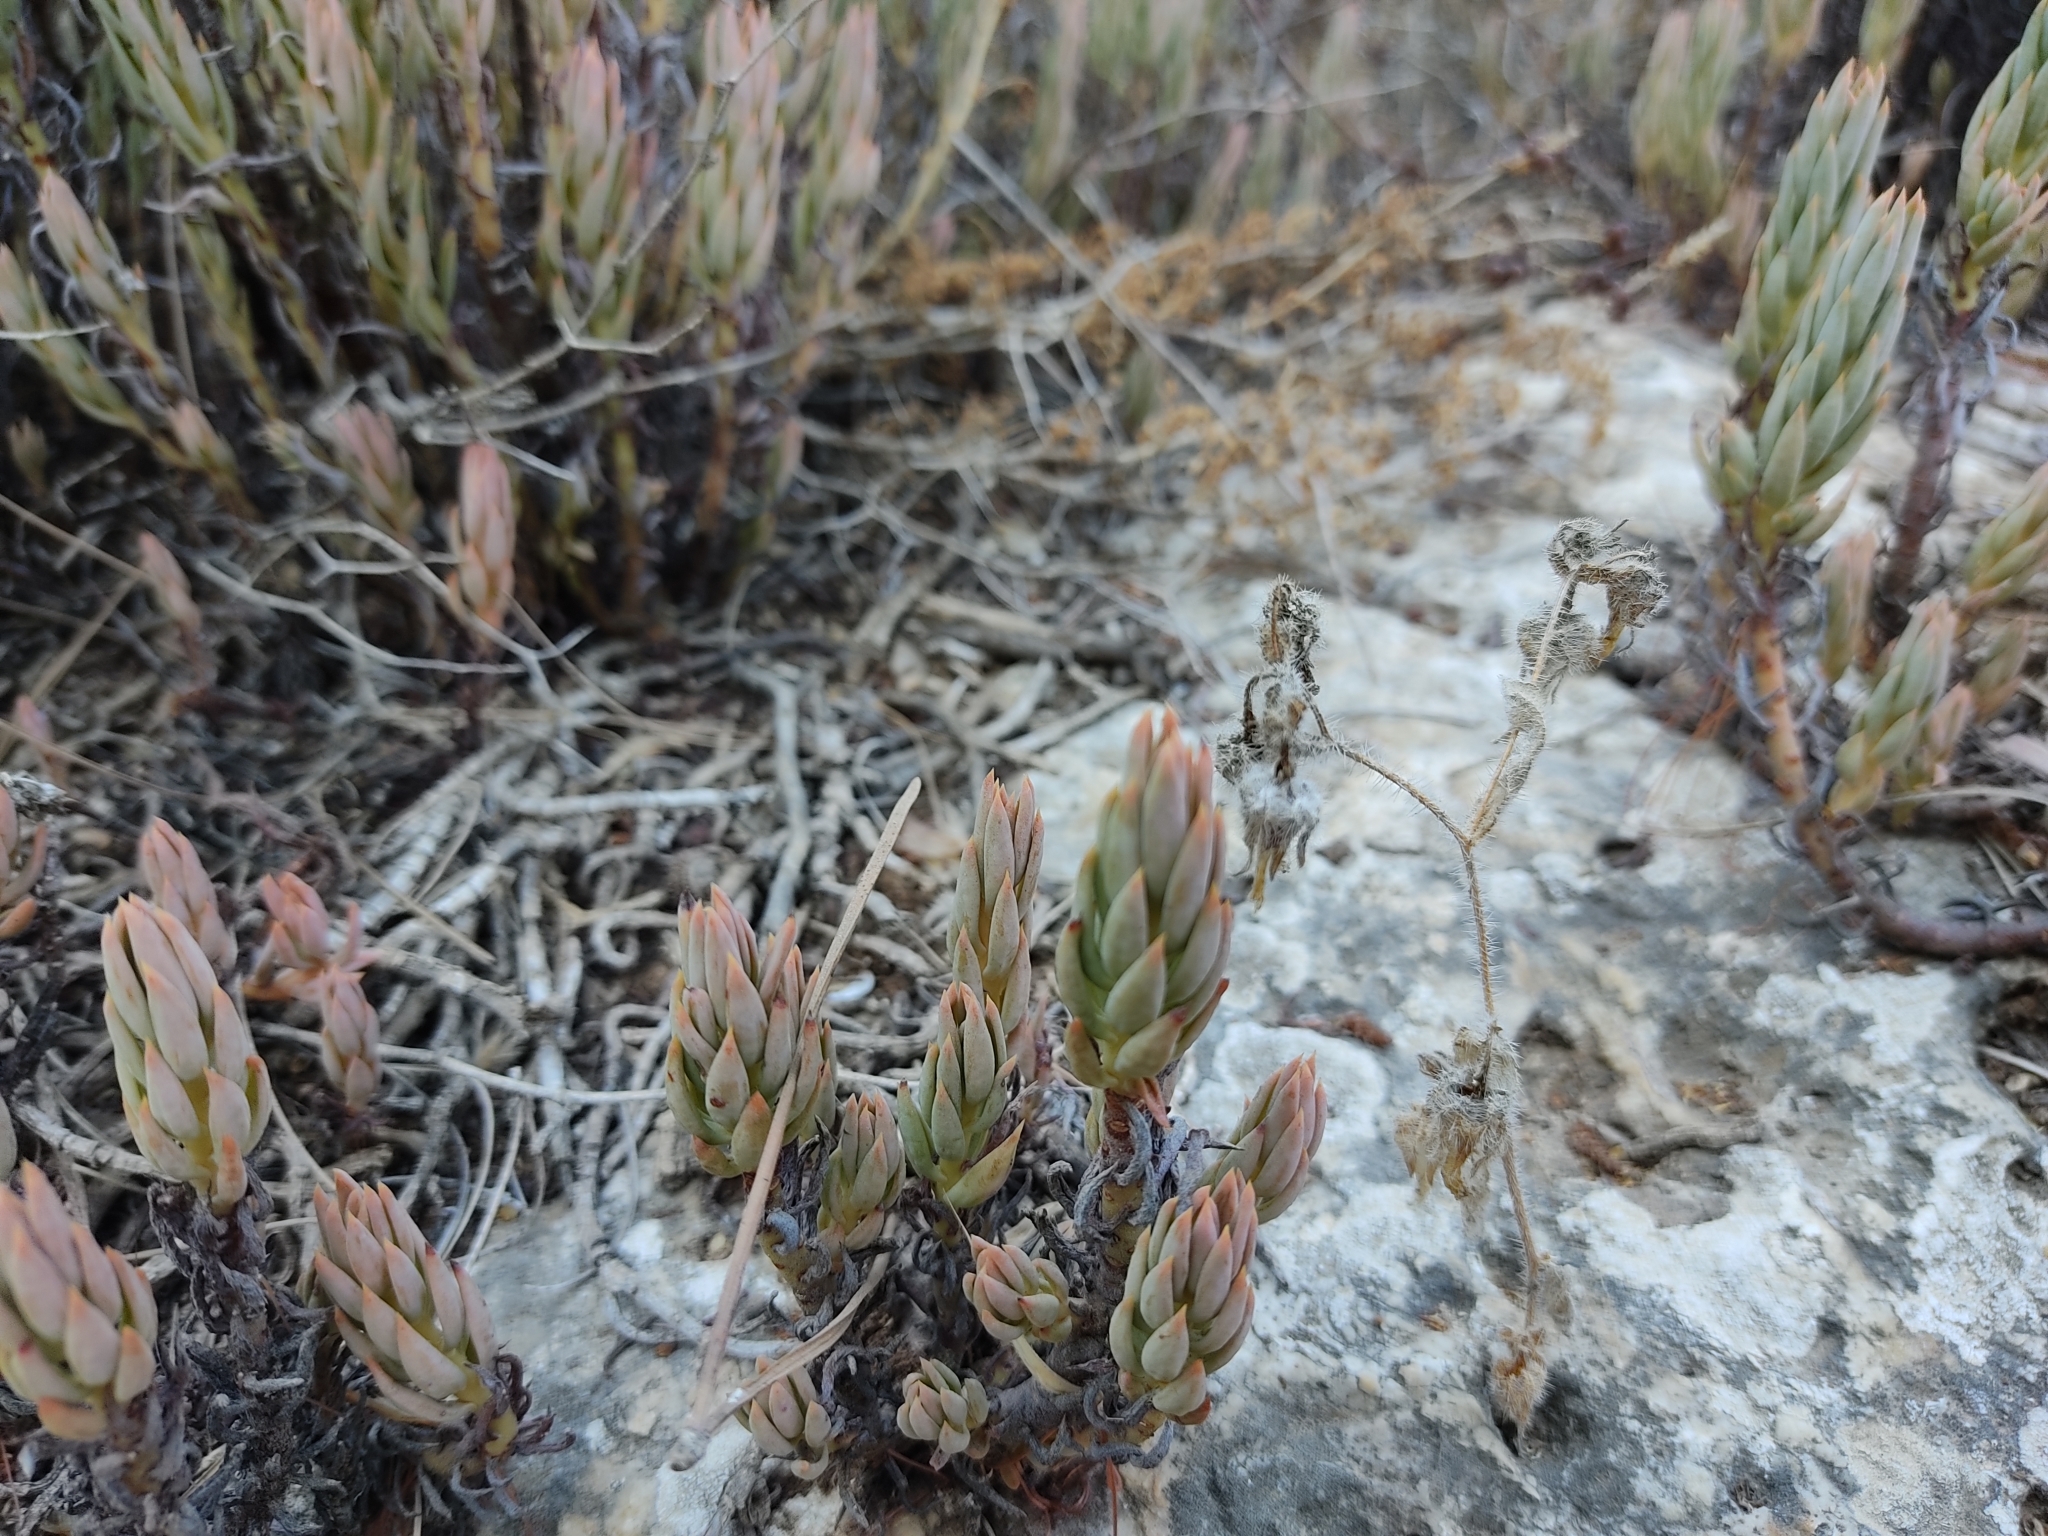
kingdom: Plantae
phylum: Tracheophyta
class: Magnoliopsida
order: Saxifragales
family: Crassulaceae
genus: Petrosedum
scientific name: Petrosedum sediforme
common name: Pale stonecrop
